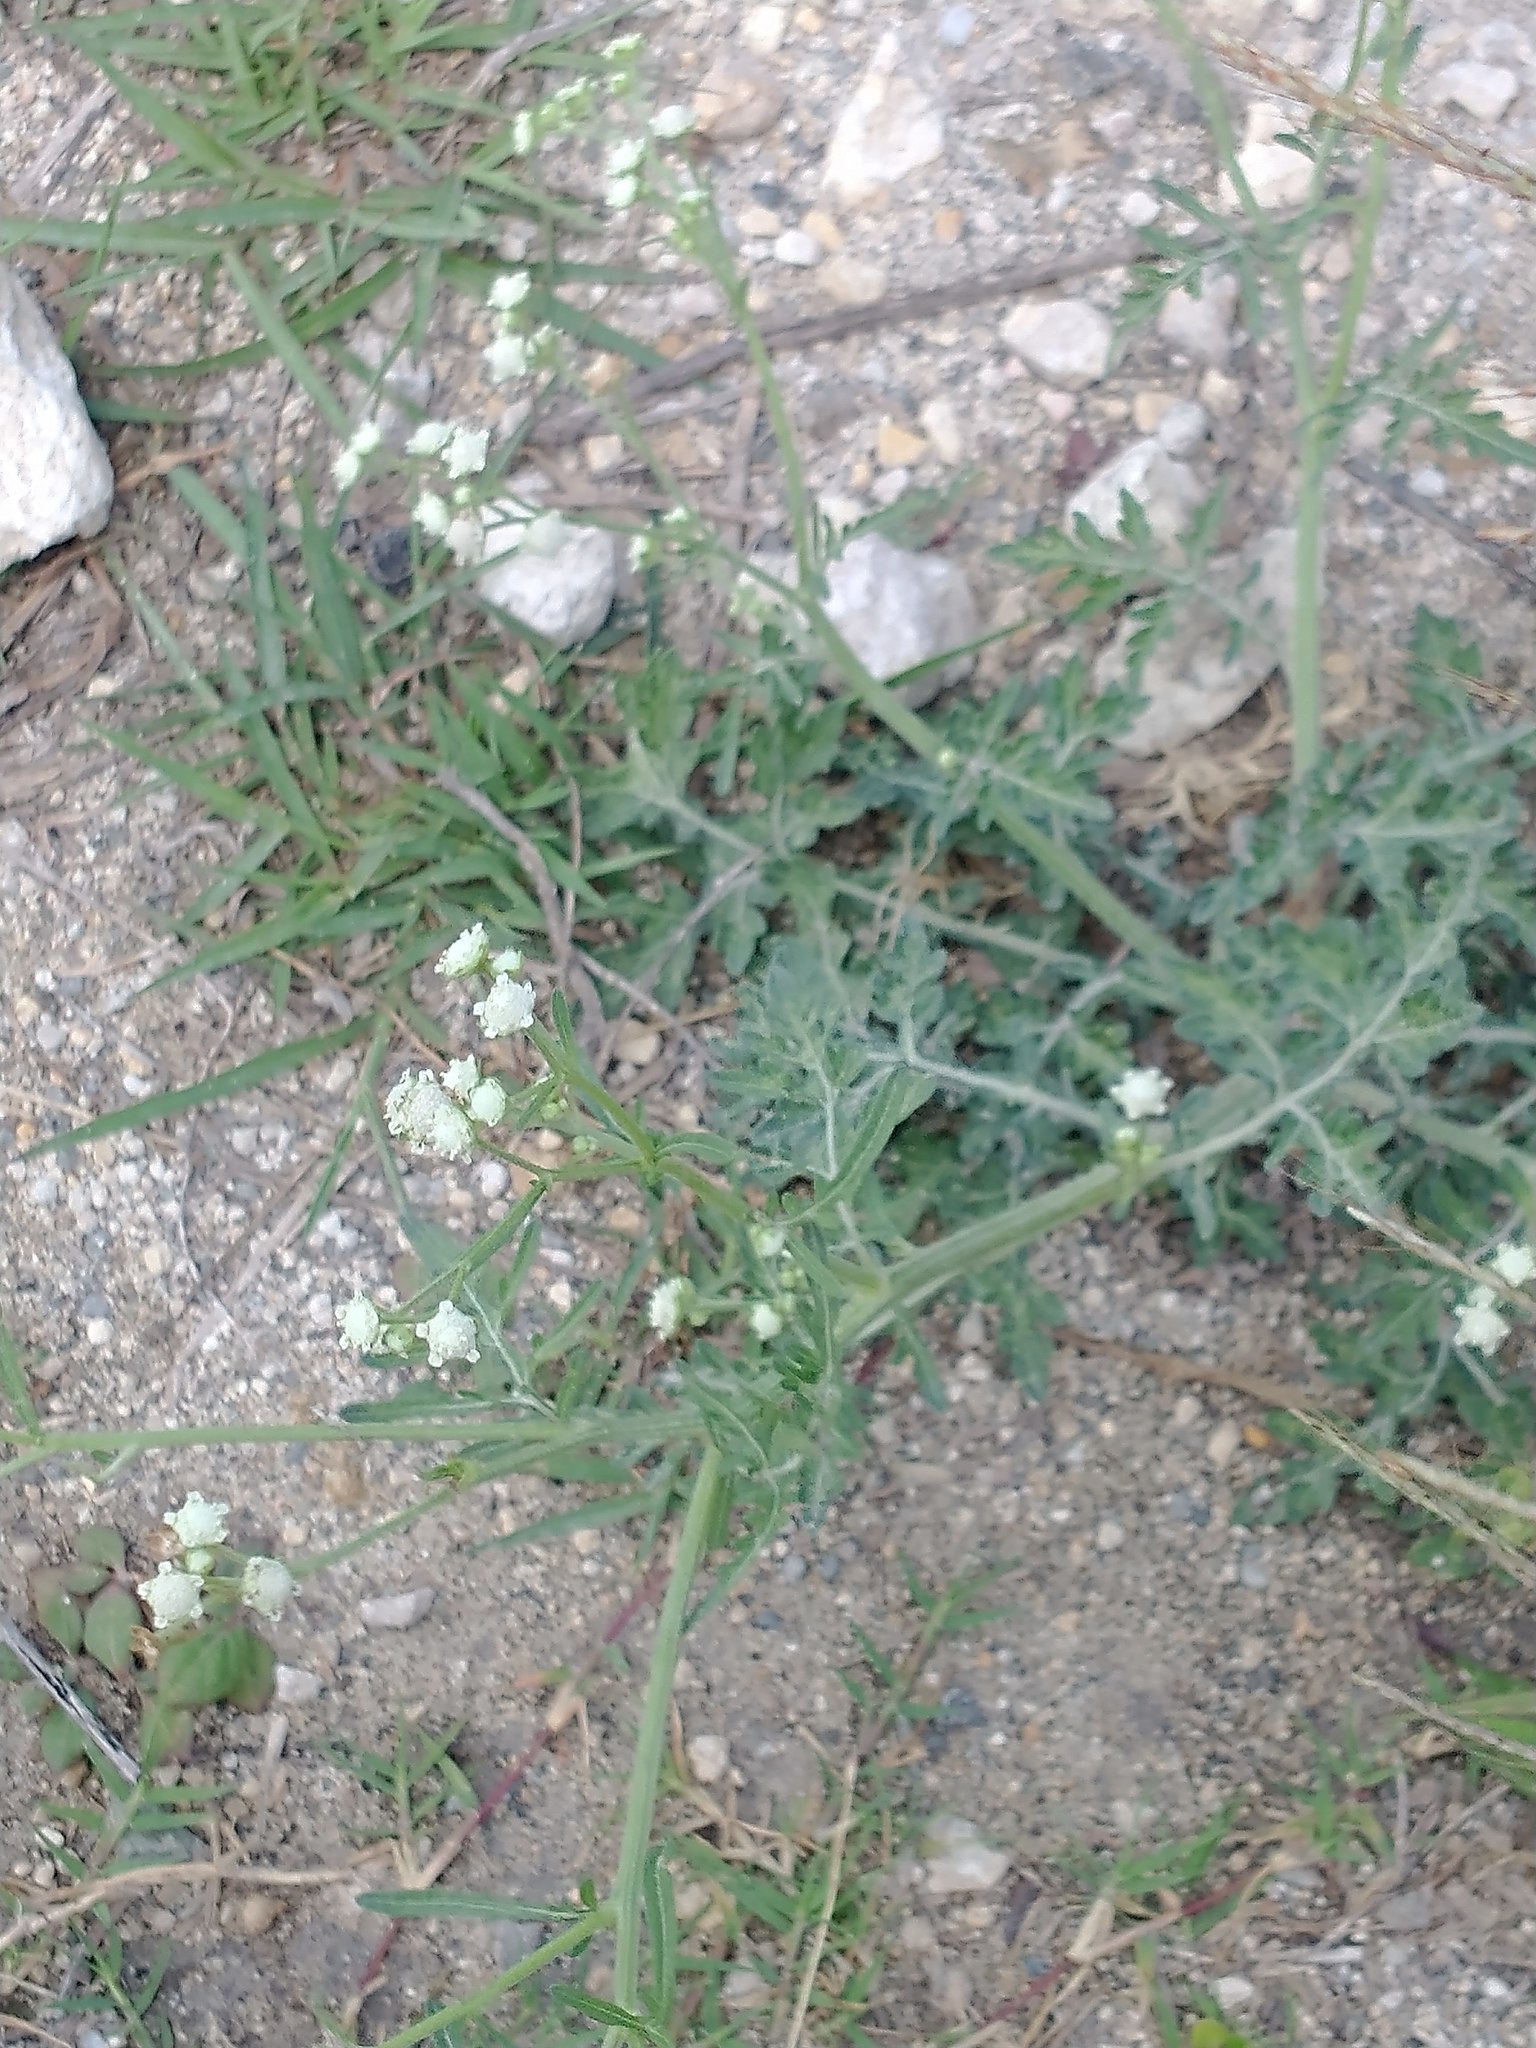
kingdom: Plantae
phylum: Tracheophyta
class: Magnoliopsida
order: Asterales
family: Asteraceae
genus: Parthenium
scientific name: Parthenium hysterophorus
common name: Santa maria feverfew
